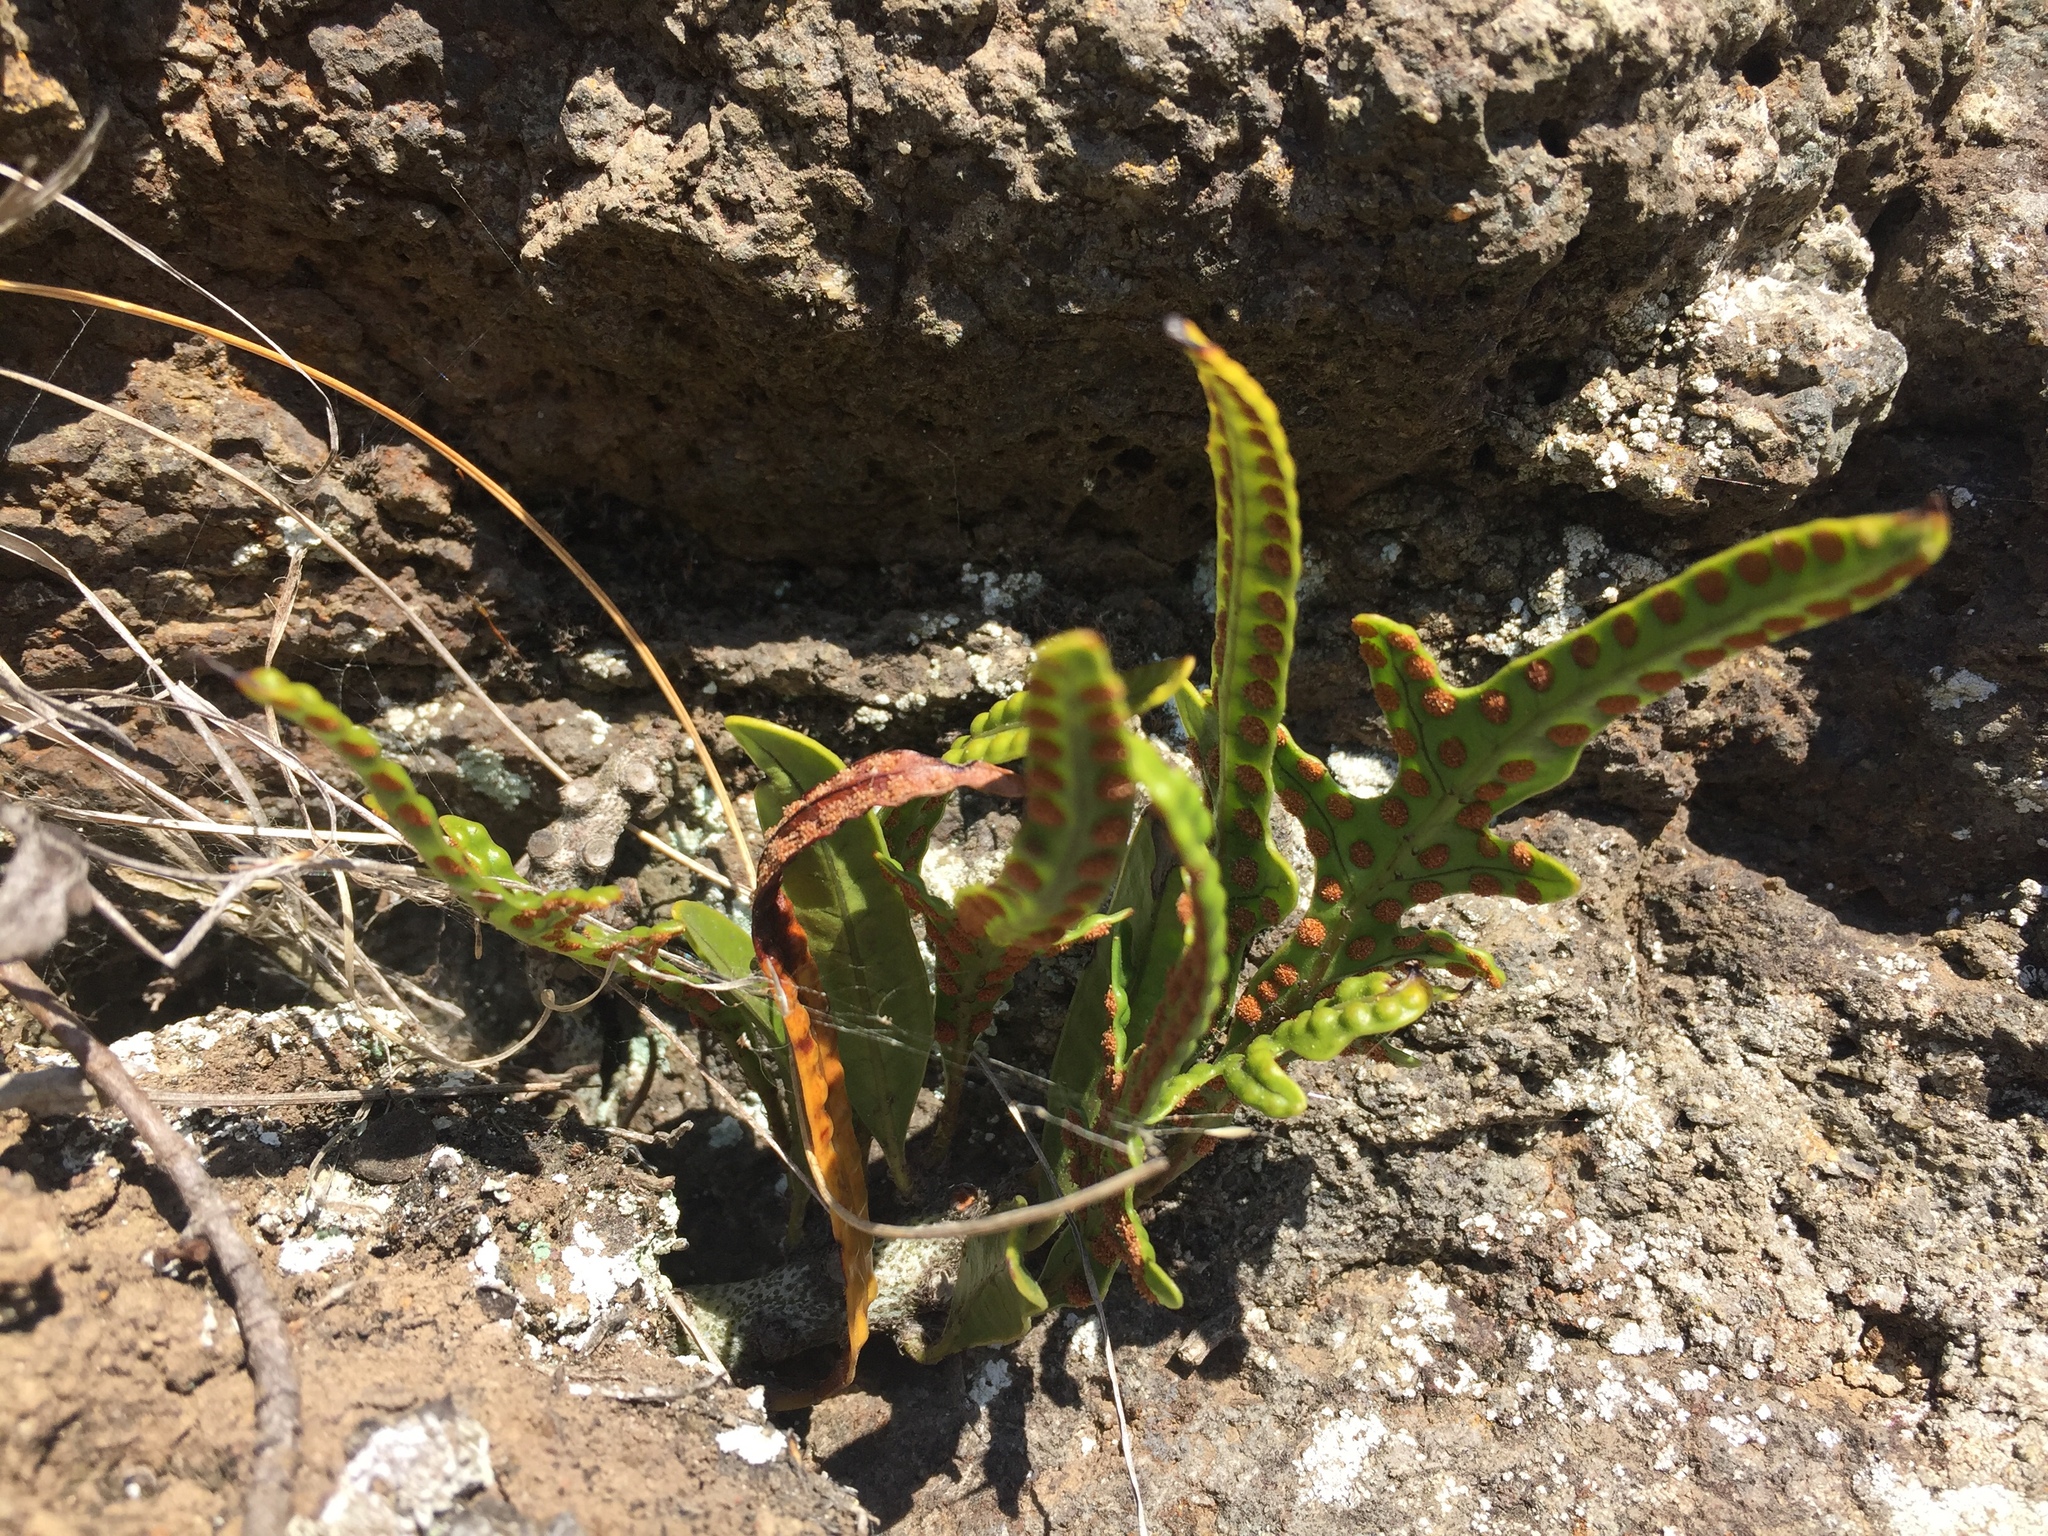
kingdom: Plantae
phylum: Tracheophyta
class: Polypodiopsida
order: Polypodiales
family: Polypodiaceae
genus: Lecanopteris
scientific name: Lecanopteris pustulata
